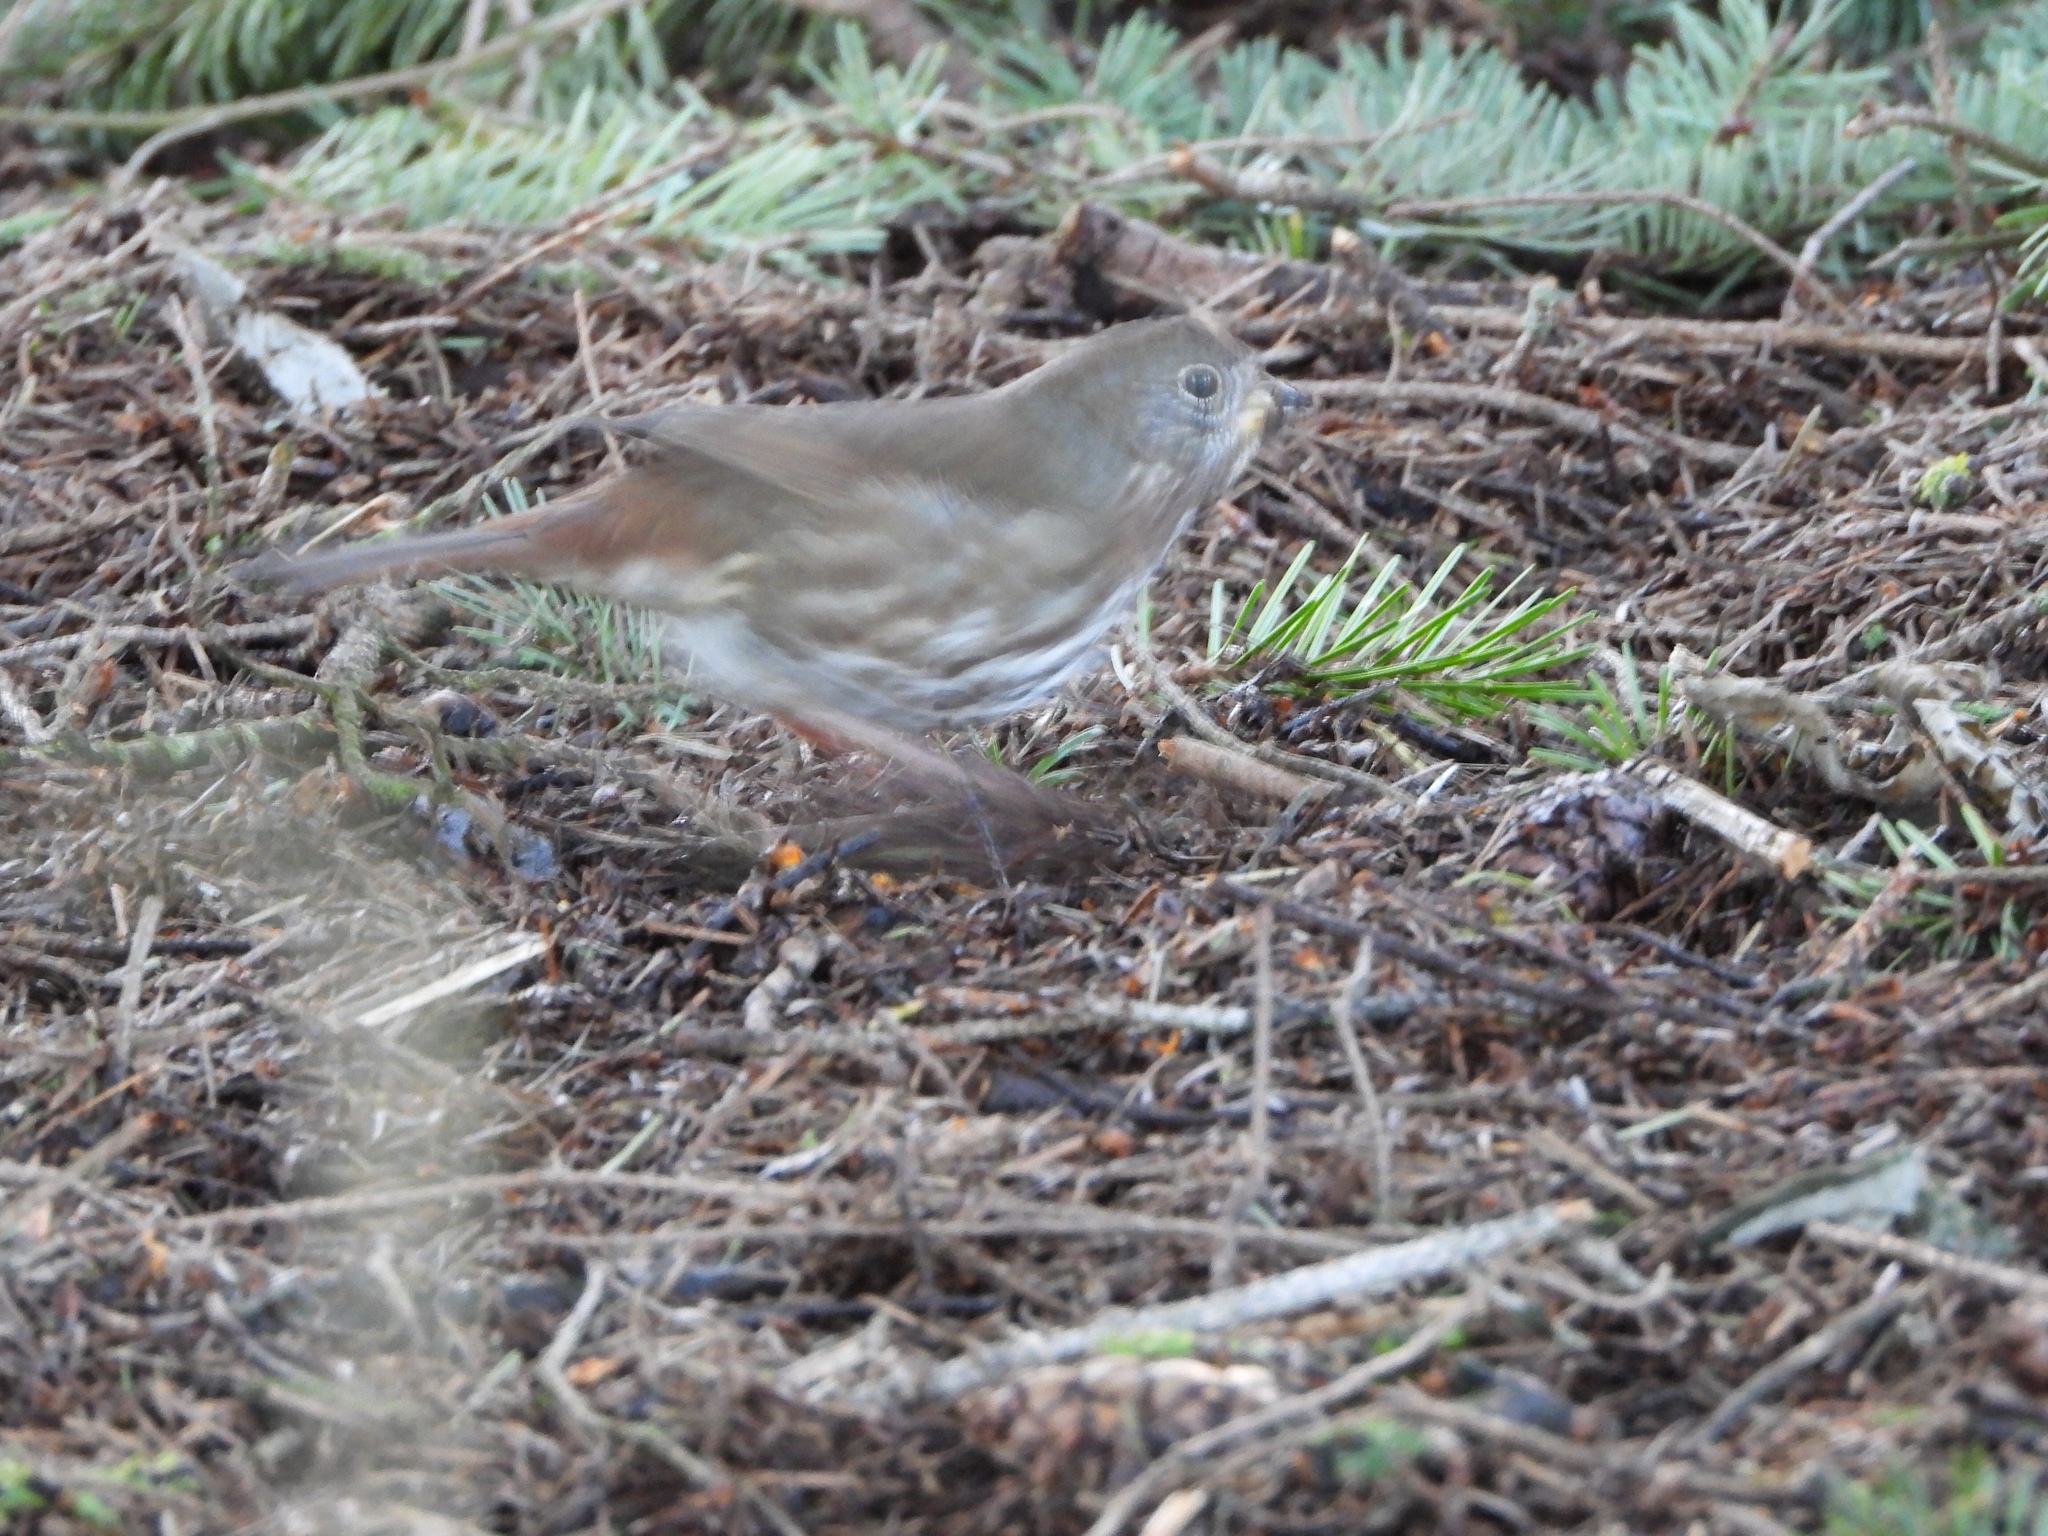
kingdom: Animalia
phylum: Chordata
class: Aves
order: Passeriformes
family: Passerellidae
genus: Passerella
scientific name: Passerella iliaca
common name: Fox sparrow
